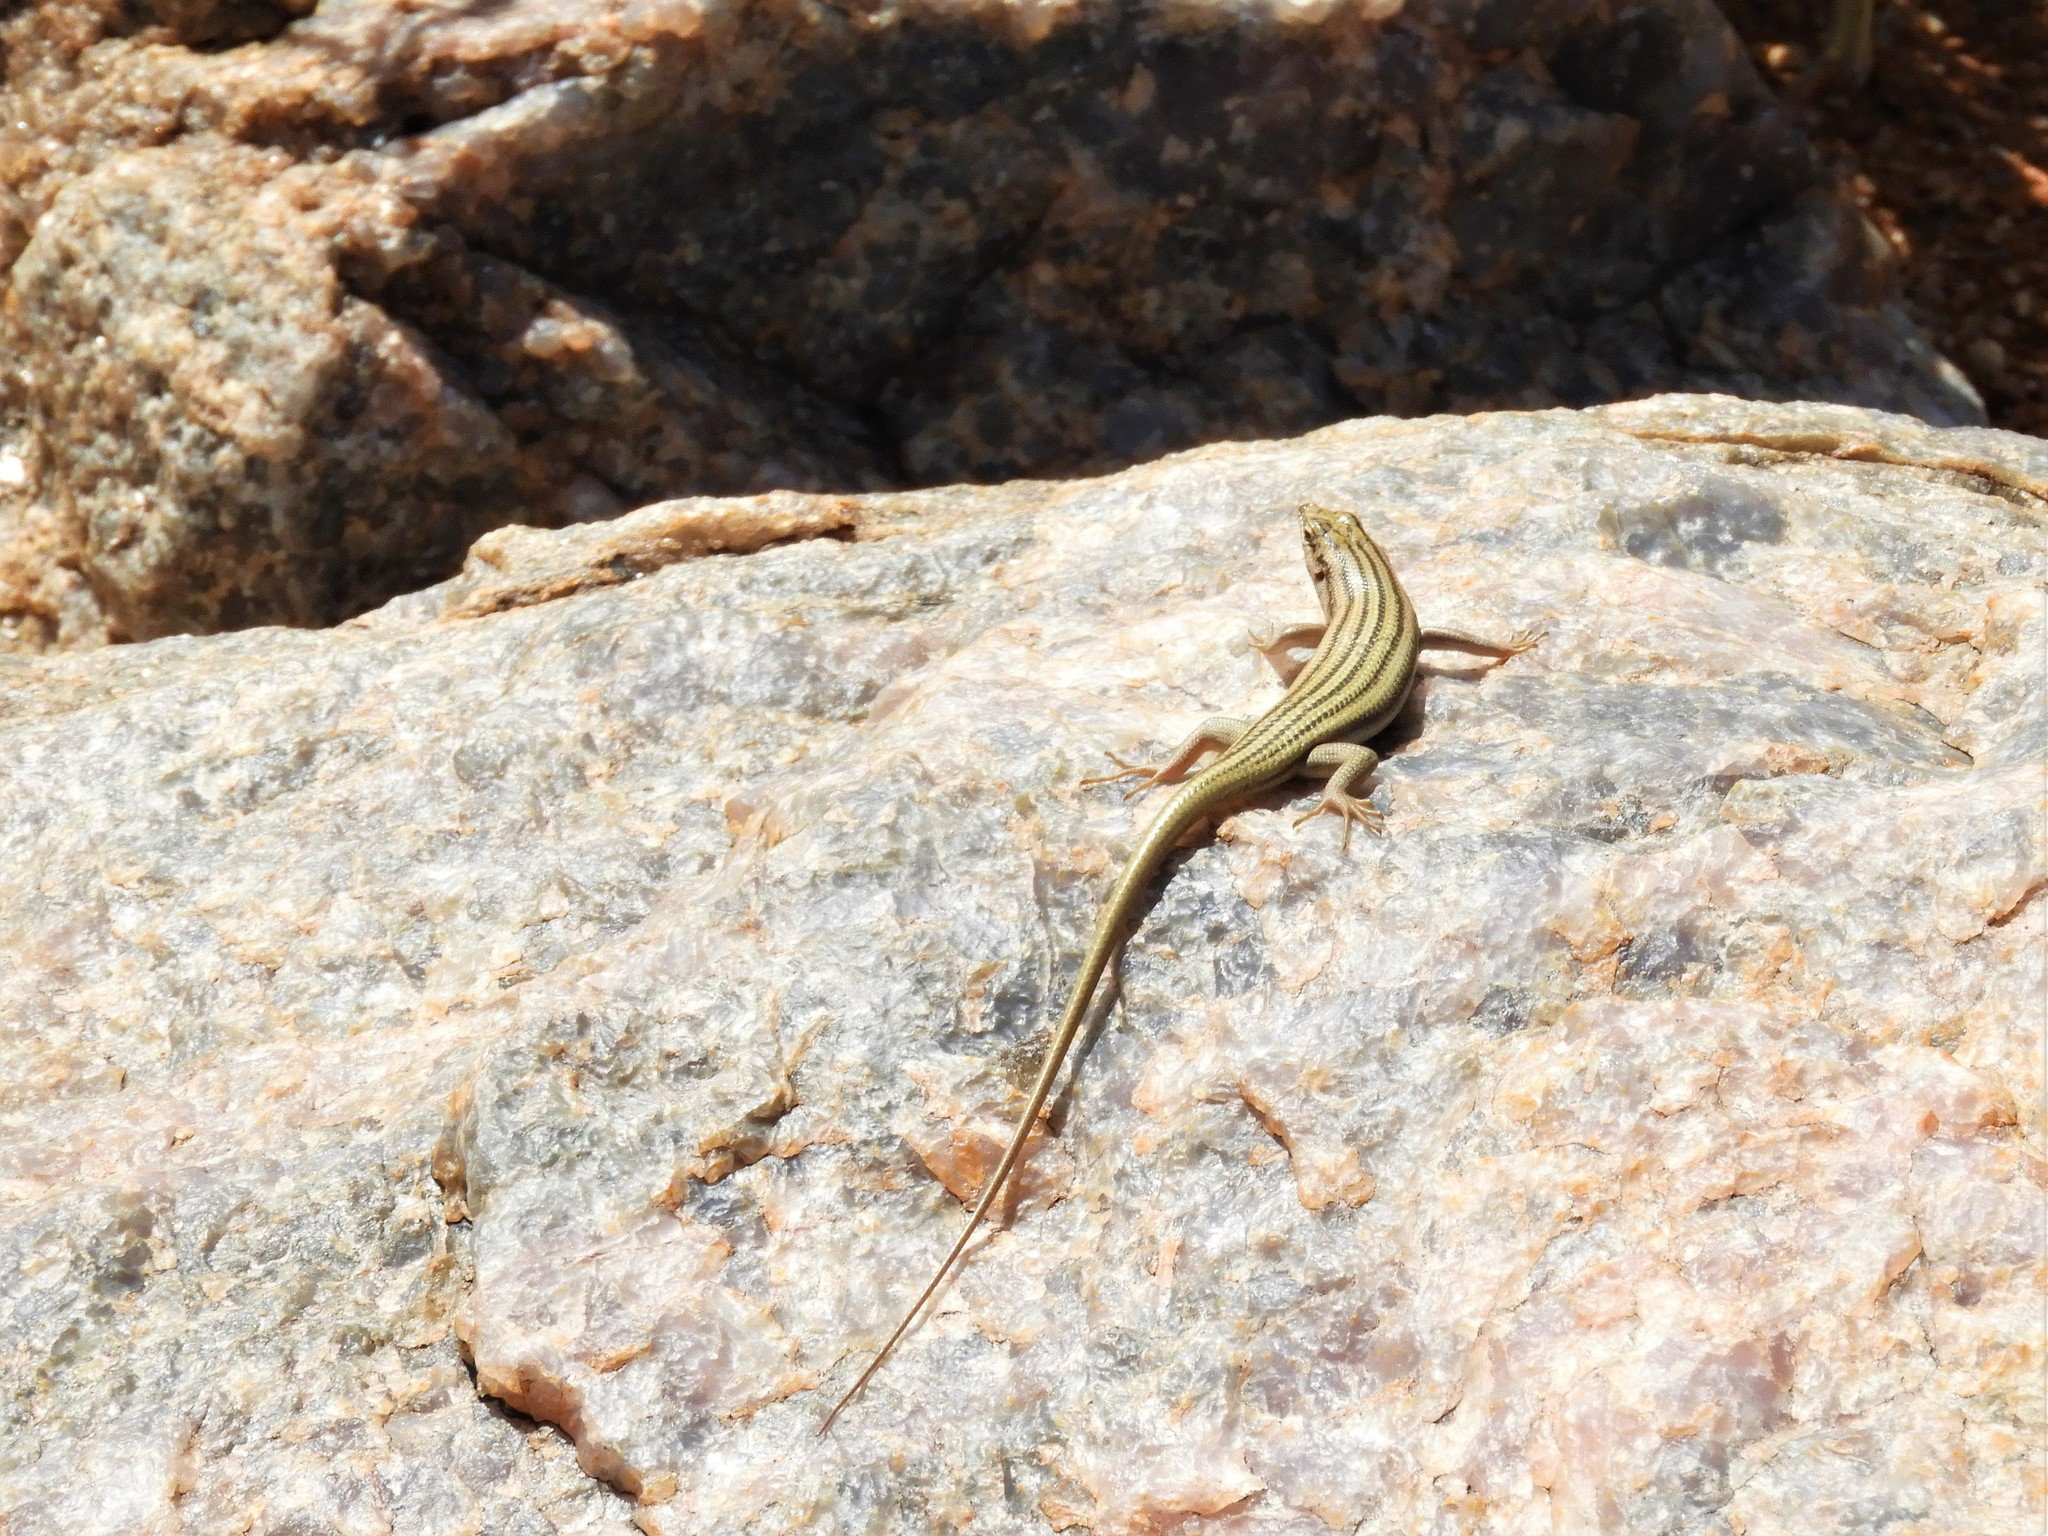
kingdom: Animalia
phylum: Chordata
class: Squamata
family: Scincidae
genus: Trachylepis
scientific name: Trachylepis sulcata
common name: Western rock skink
